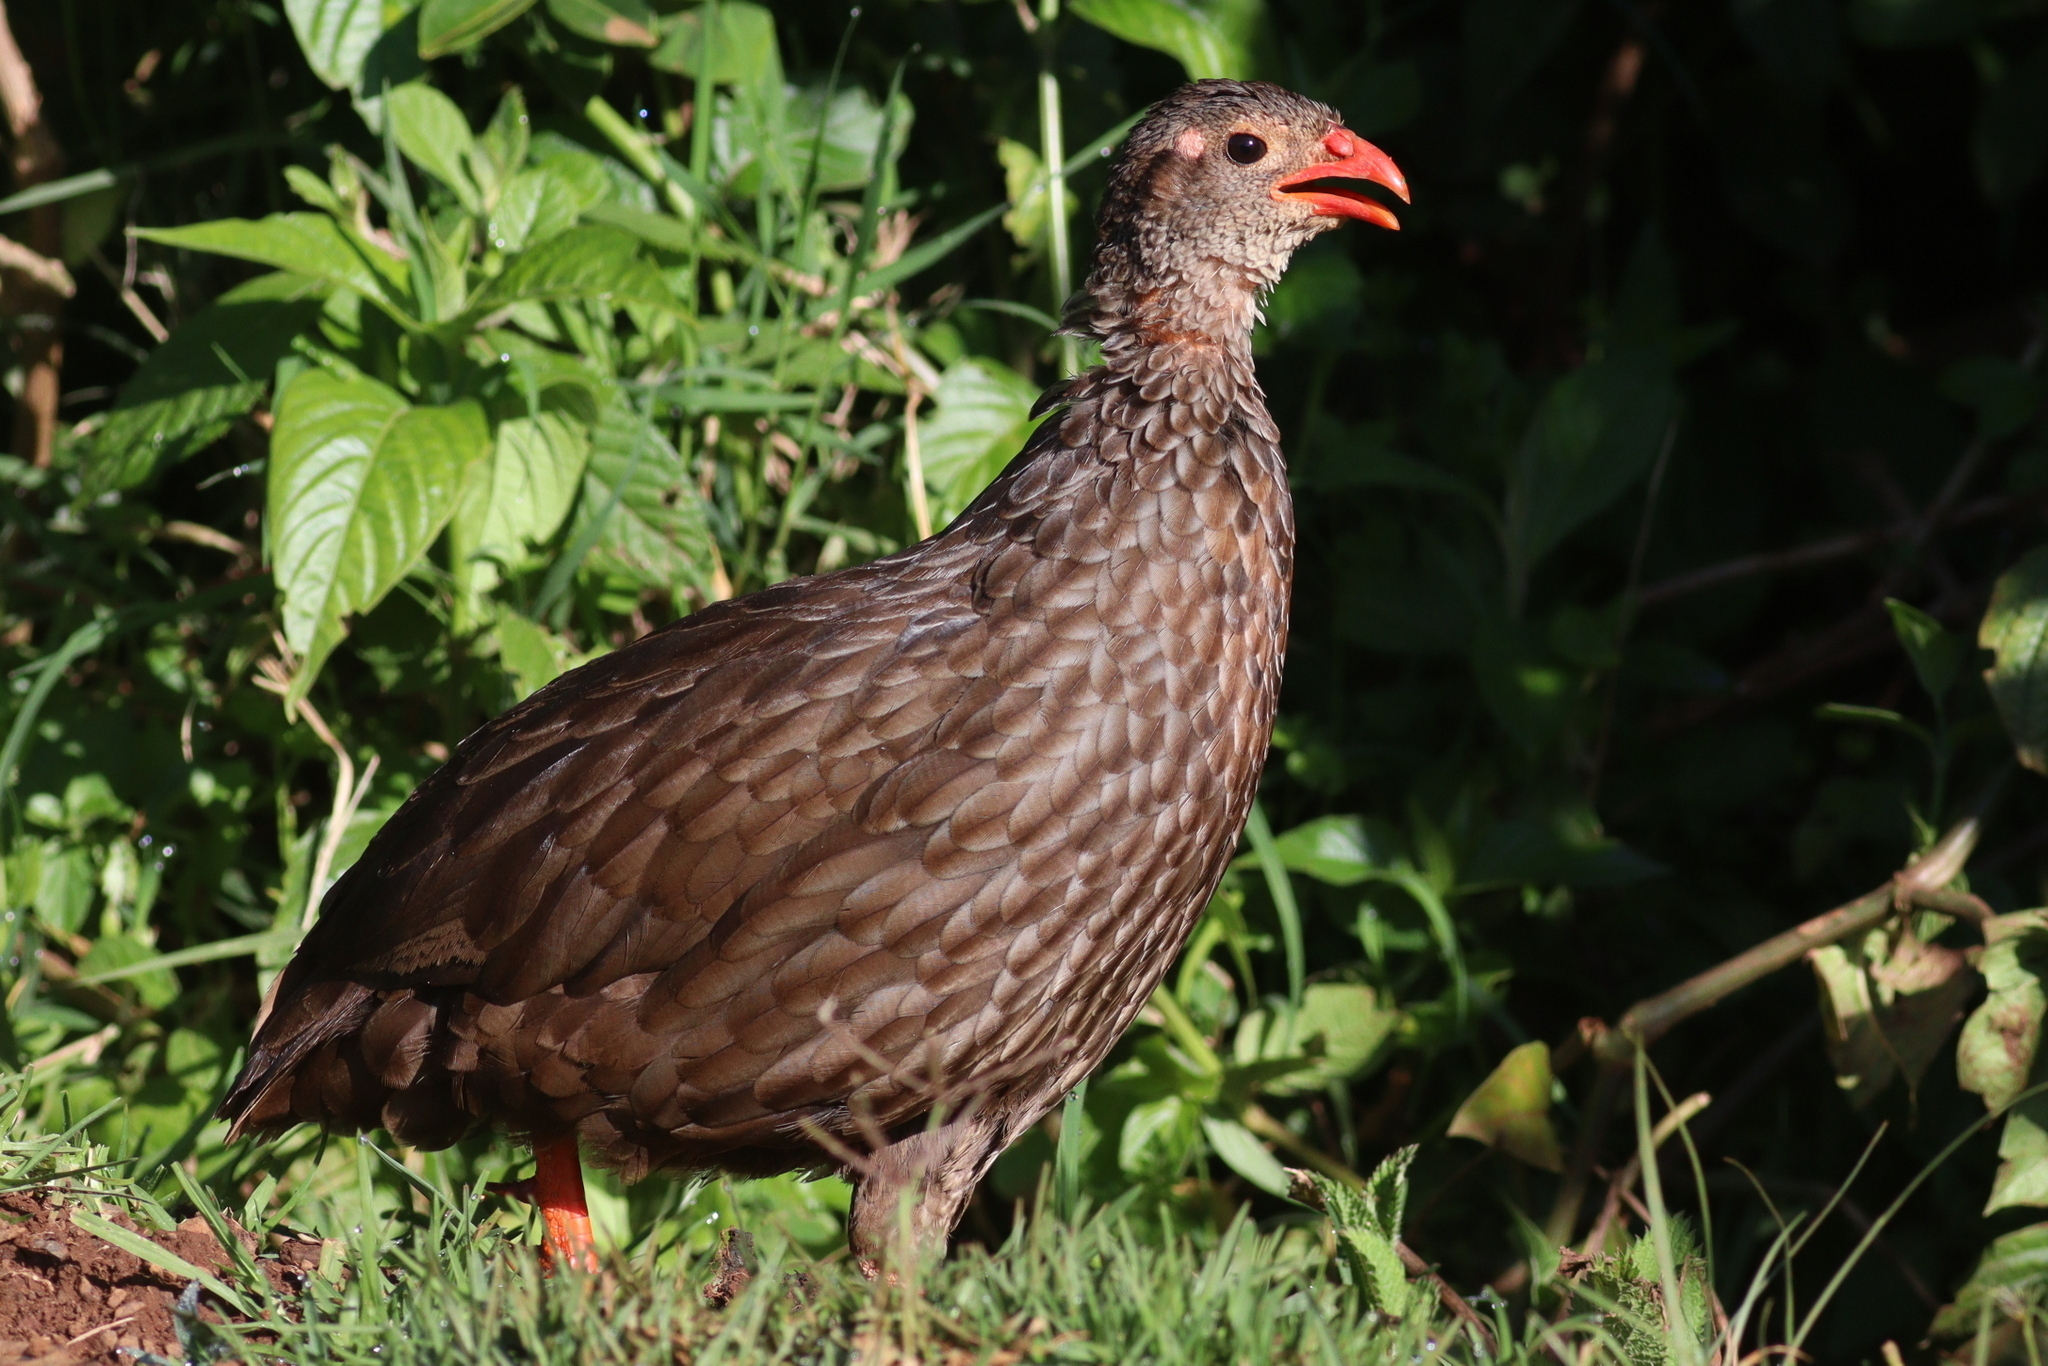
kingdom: Animalia
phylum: Chordata
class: Aves
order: Galliformes
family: Phasianidae
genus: Pternistis
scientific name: Pternistis squamatus
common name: Scaly francolin
